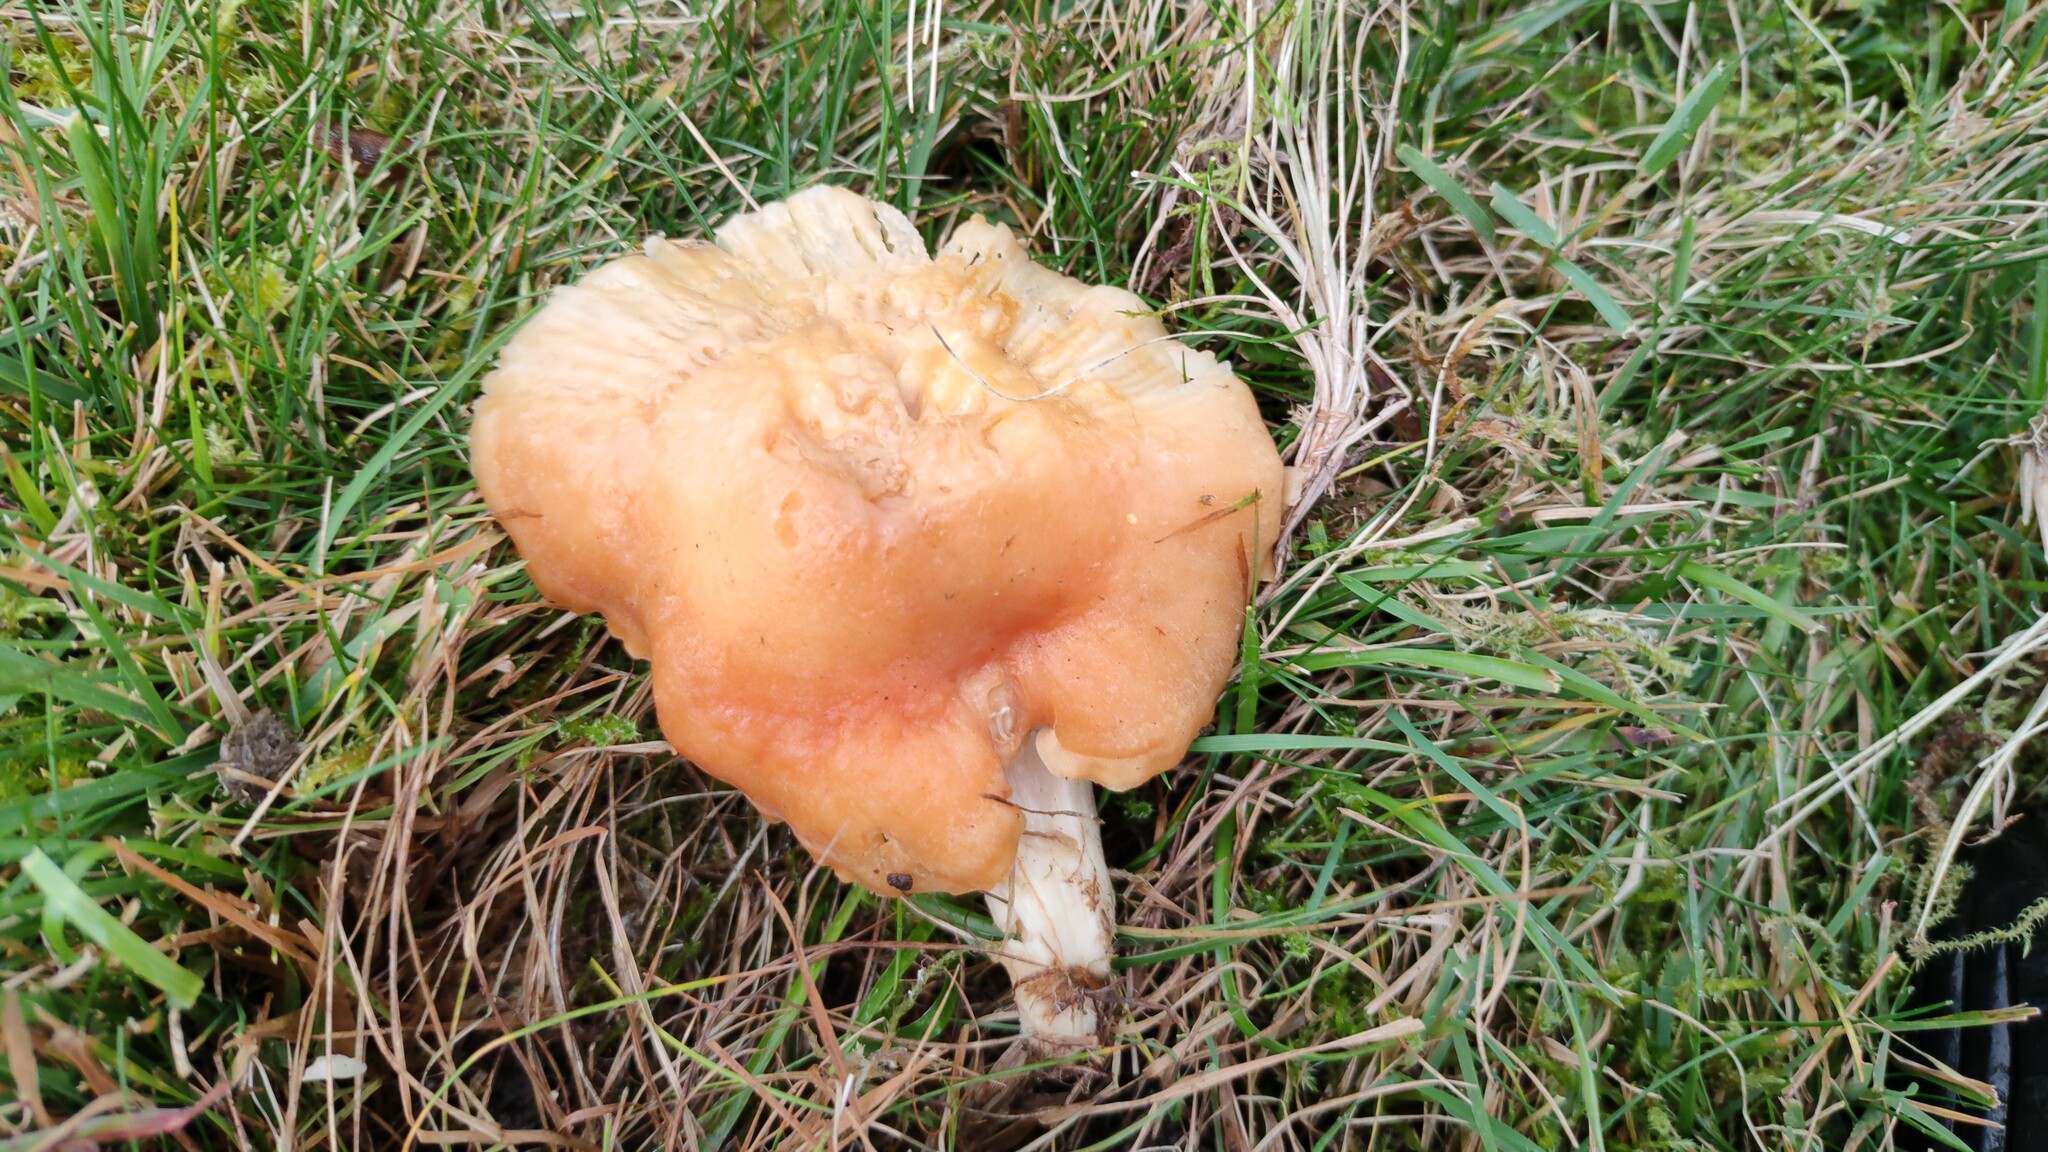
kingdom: Fungi
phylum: Basidiomycota
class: Agaricomycetes
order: Agaricales
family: Hygrophoraceae
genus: Cuphophyllus
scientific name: Cuphophyllus pratensis
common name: Meadow waxcap
